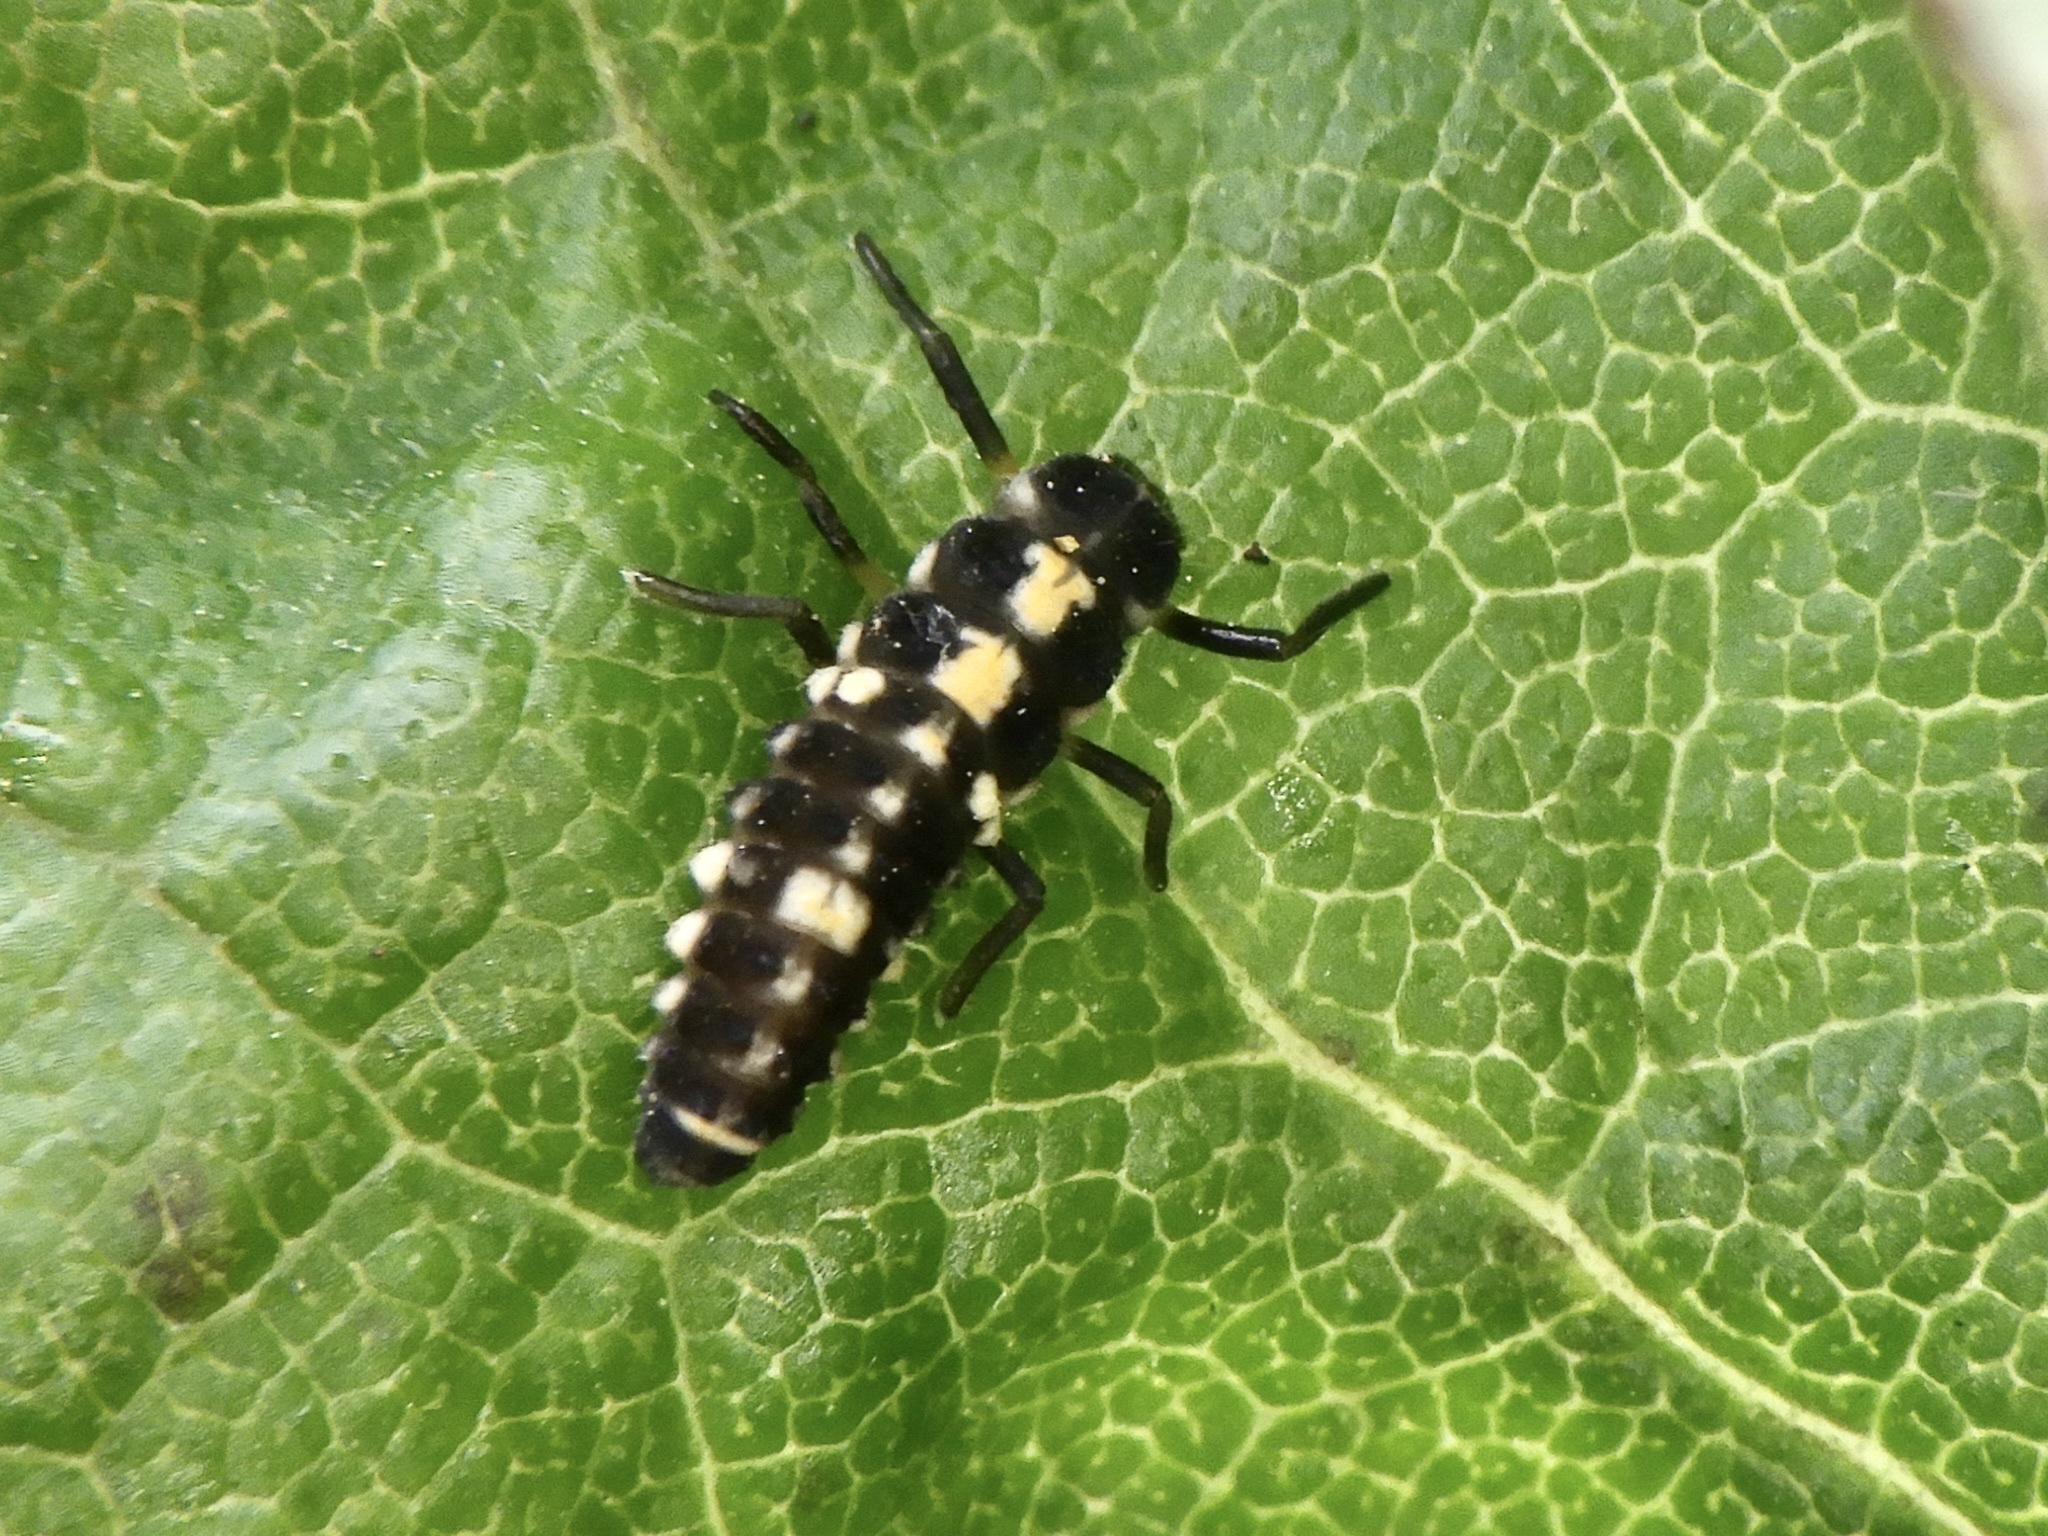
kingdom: Animalia
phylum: Arthropoda
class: Insecta
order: Coleoptera
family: Coccinellidae
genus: Propylea
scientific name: Propylea japonica
